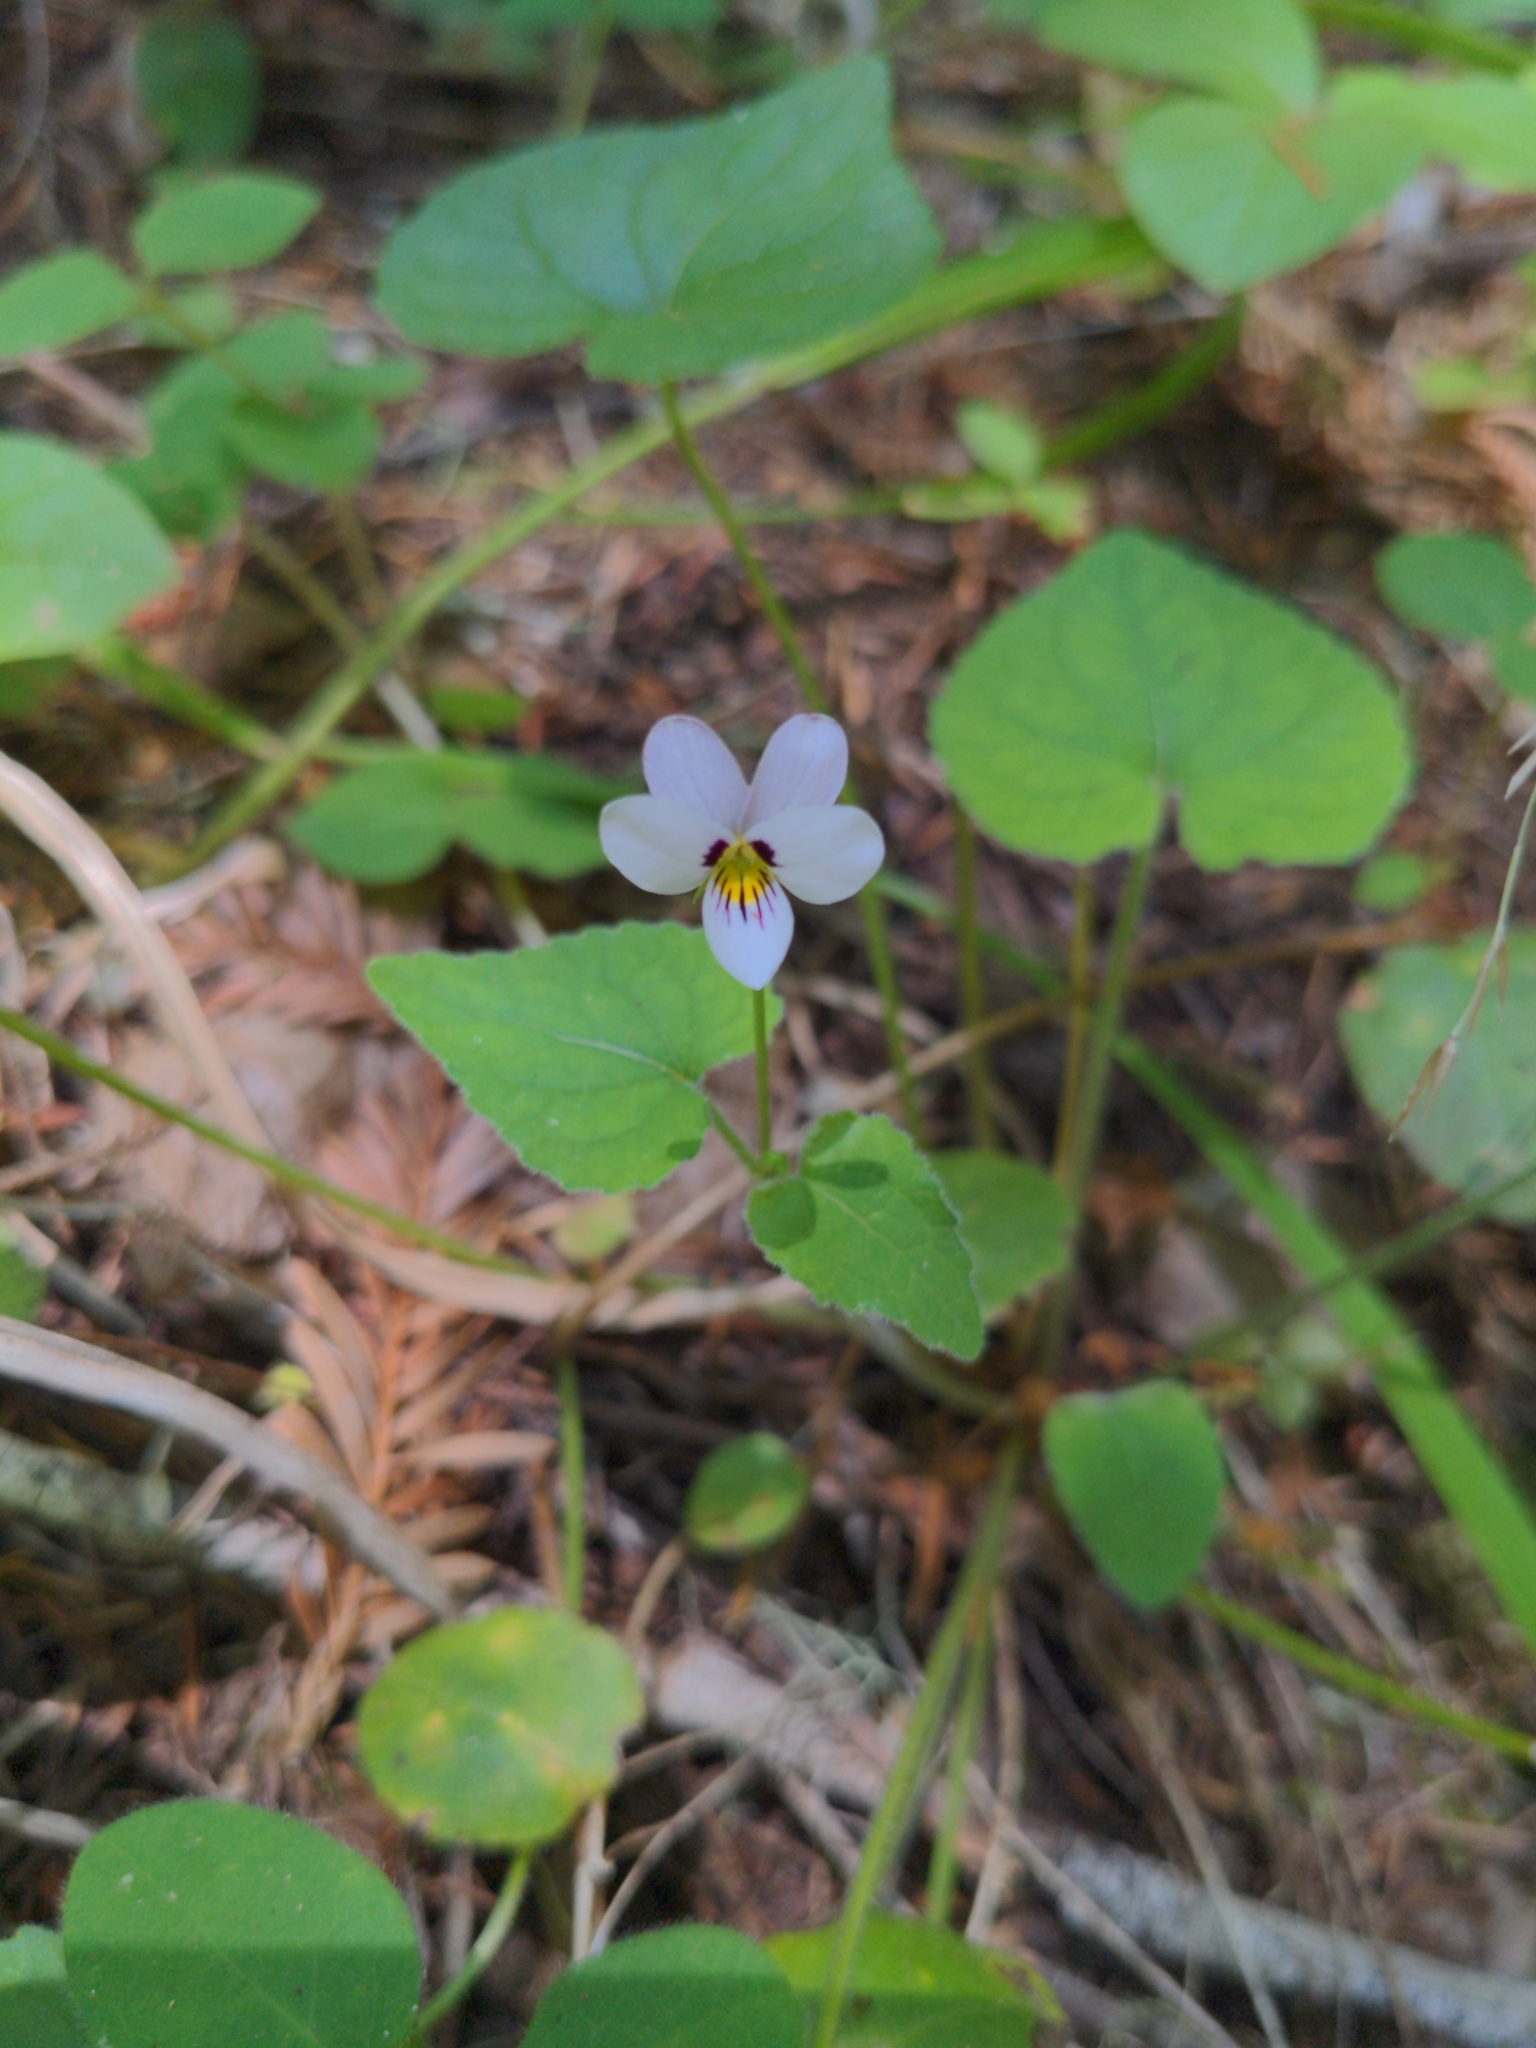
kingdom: Plantae
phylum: Tracheophyta
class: Magnoliopsida
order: Malpighiales
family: Violaceae
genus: Viola
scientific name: Viola ocellata
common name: Western heart's ease
